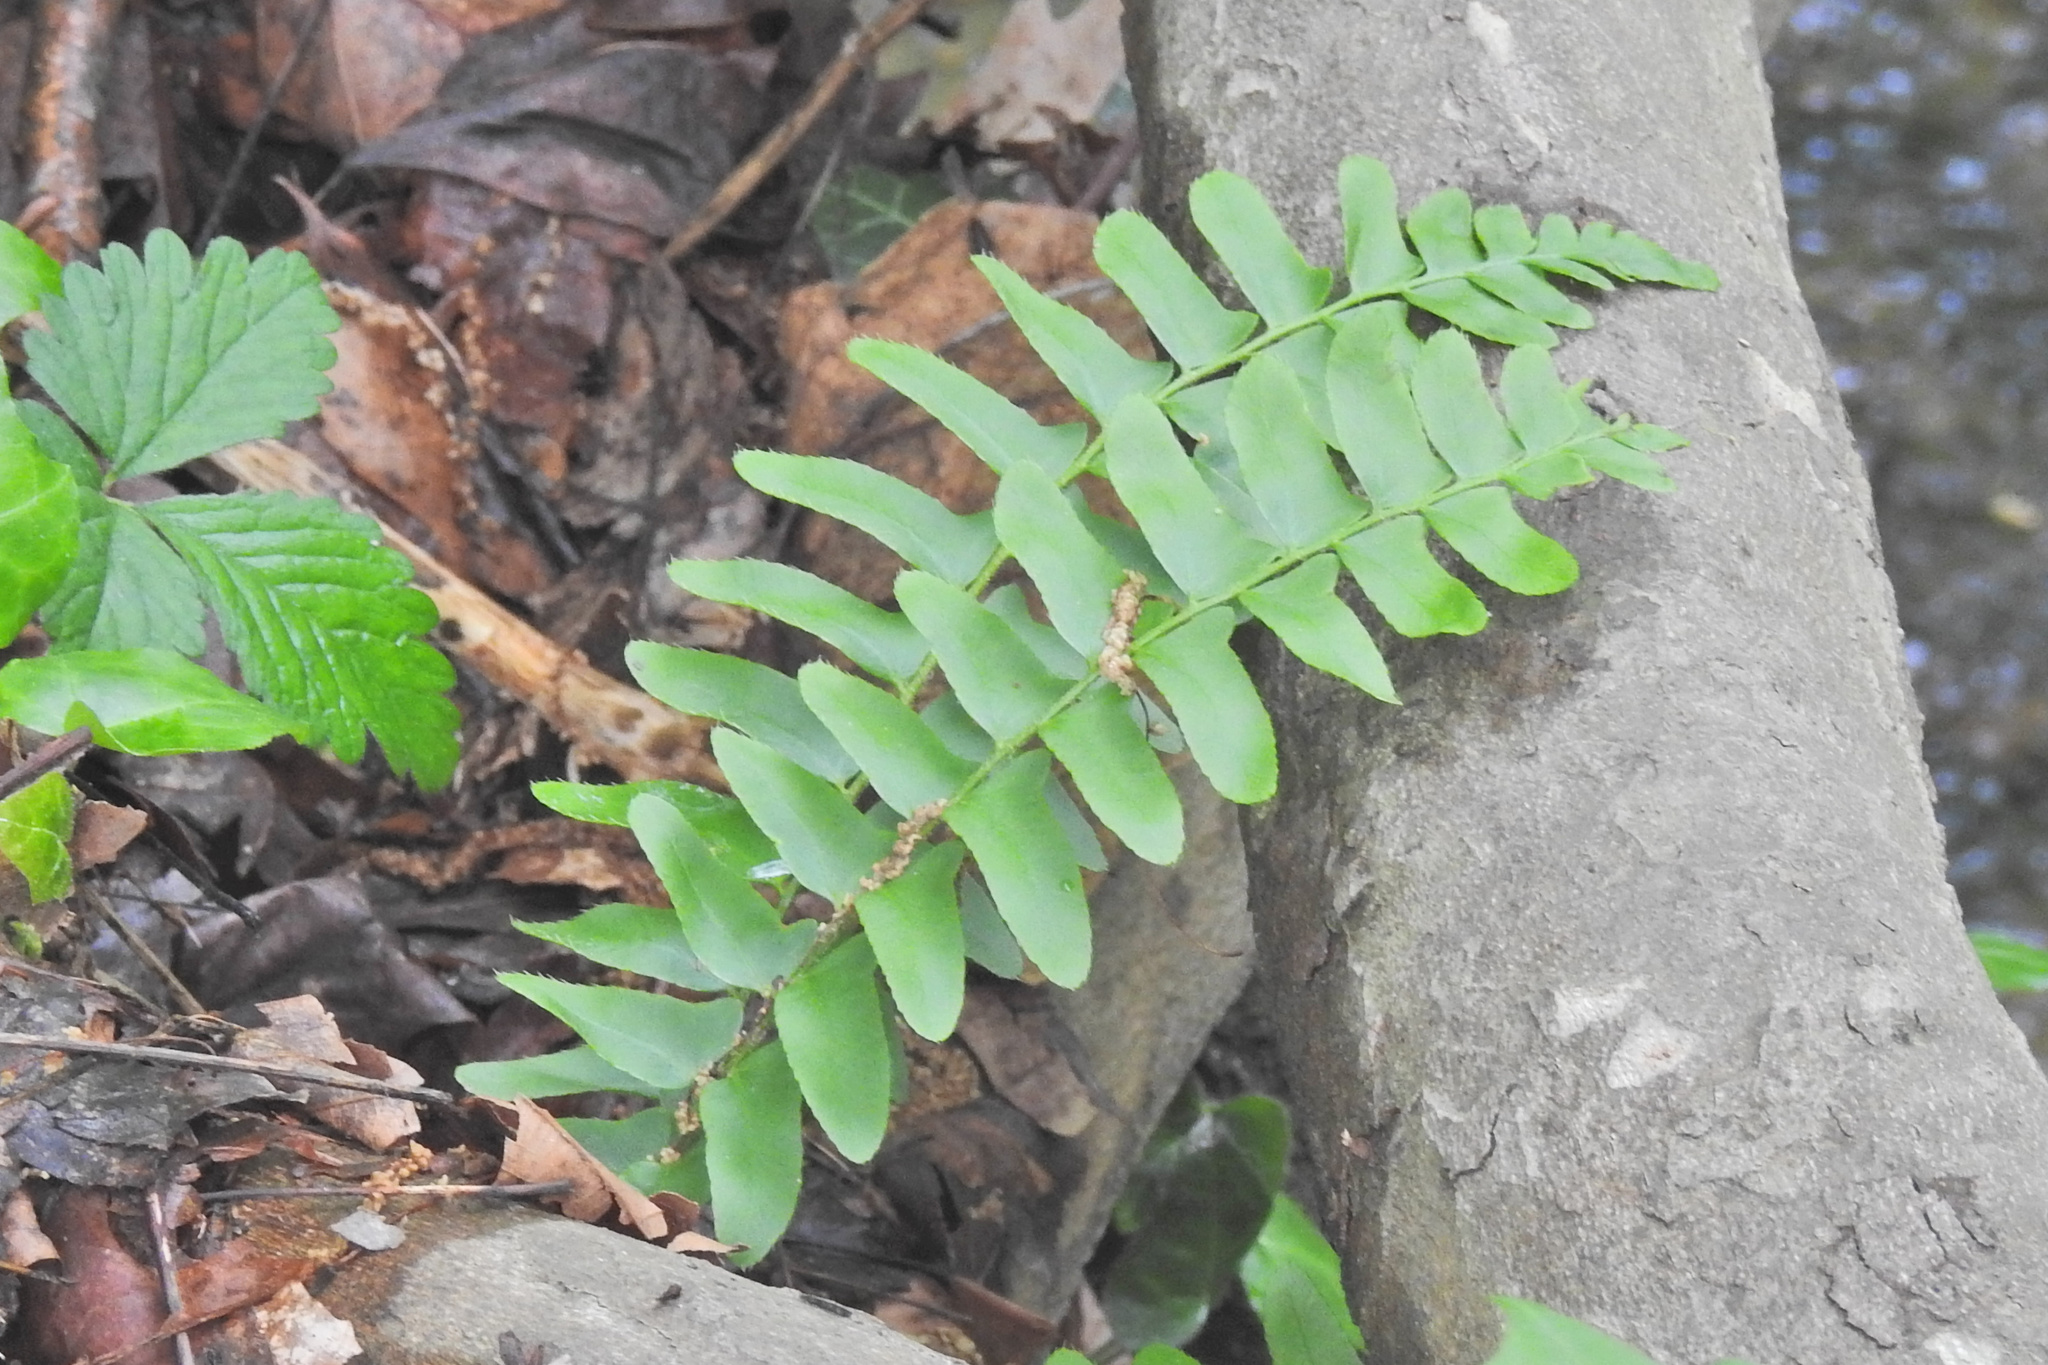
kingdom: Plantae
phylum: Tracheophyta
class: Polypodiopsida
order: Polypodiales
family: Dryopteridaceae
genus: Polystichum
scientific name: Polystichum acrostichoides
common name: Christmas fern
